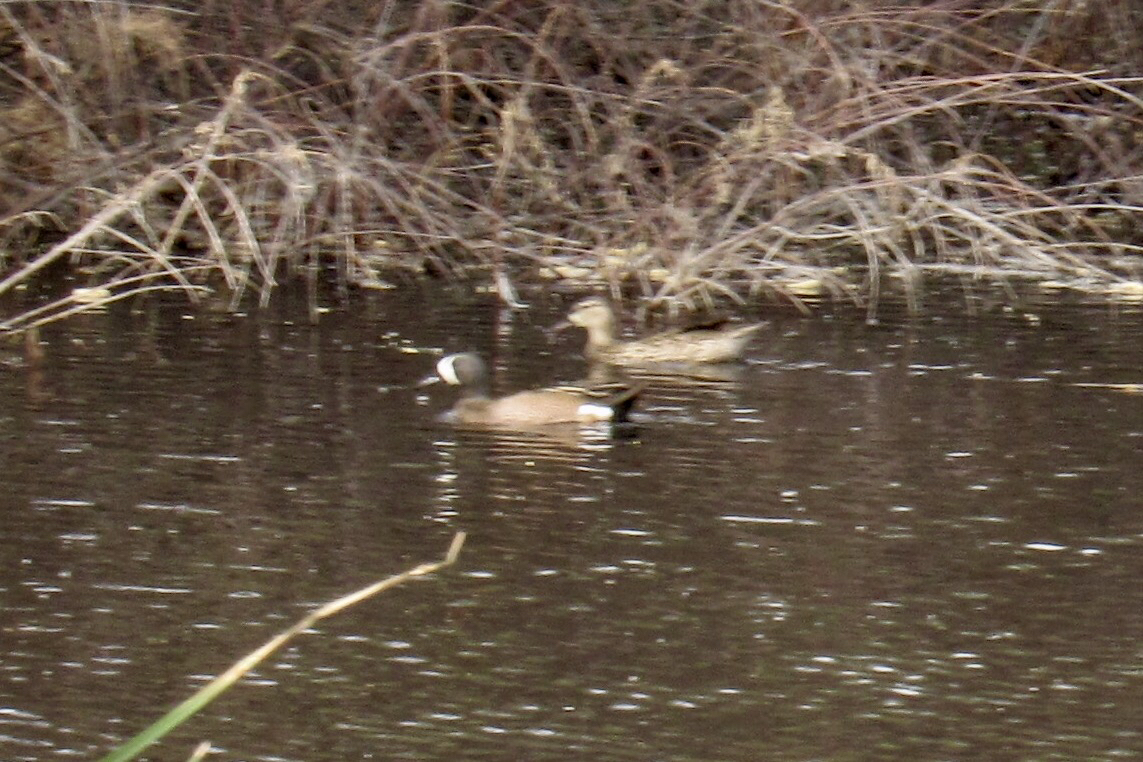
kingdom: Animalia
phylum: Chordata
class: Aves
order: Anseriformes
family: Anatidae
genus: Spatula
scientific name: Spatula discors
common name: Blue-winged teal
